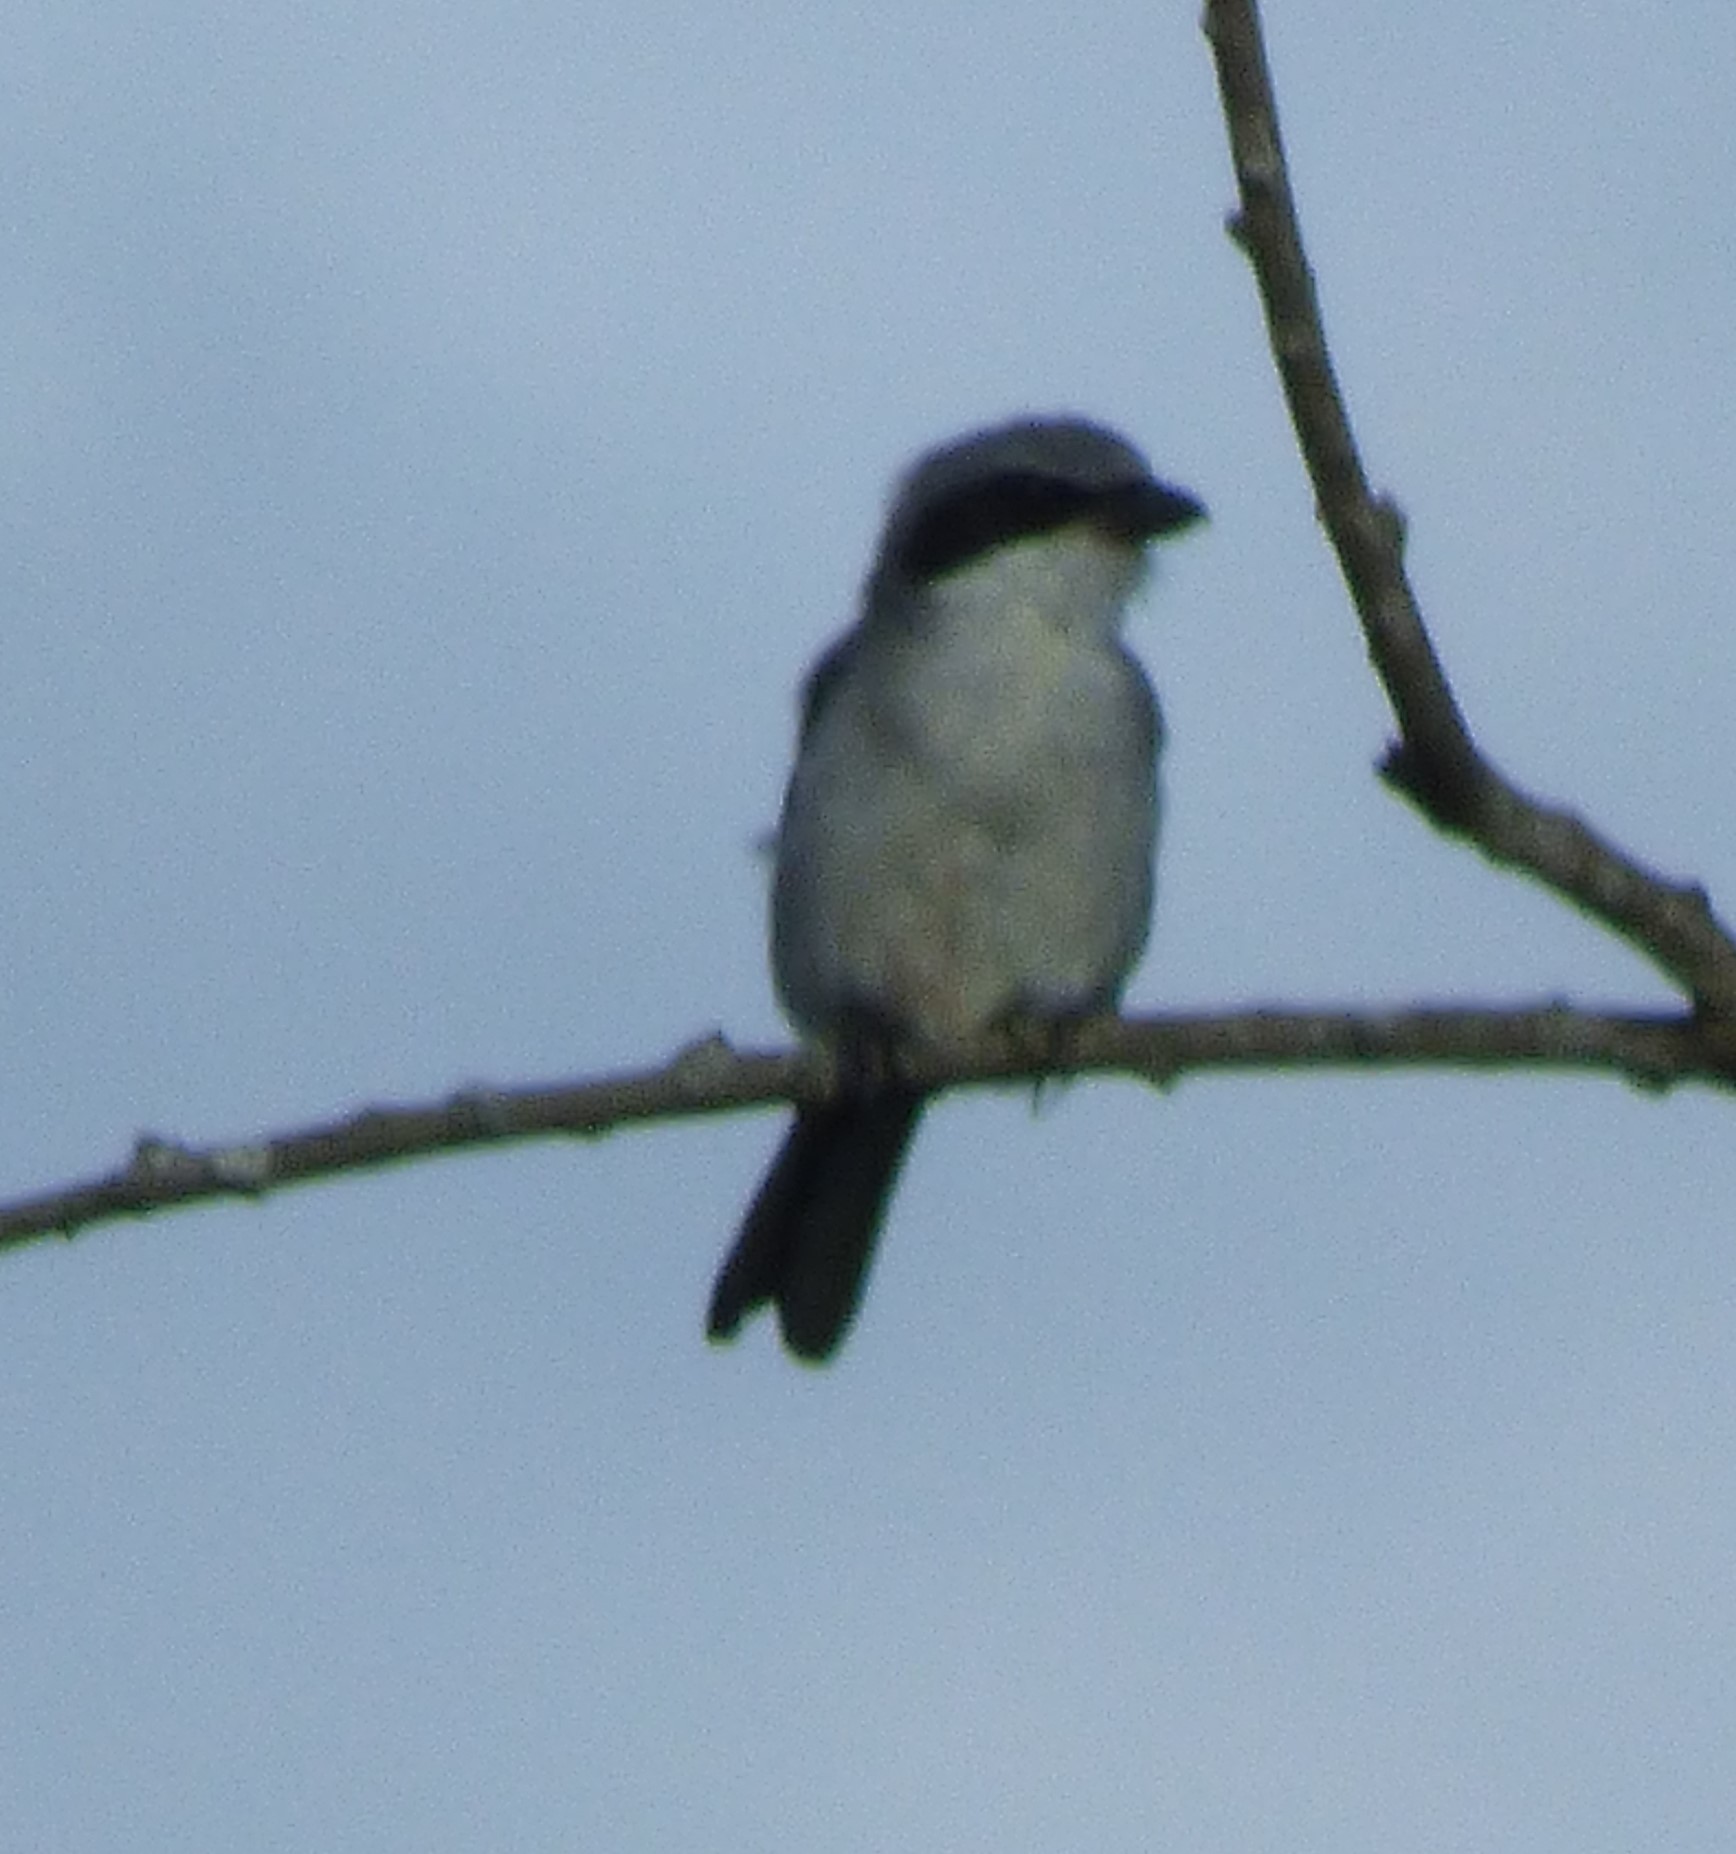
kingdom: Animalia
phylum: Chordata
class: Aves
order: Passeriformes
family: Laniidae
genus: Lanius
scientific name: Lanius ludovicianus
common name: Loggerhead shrike
